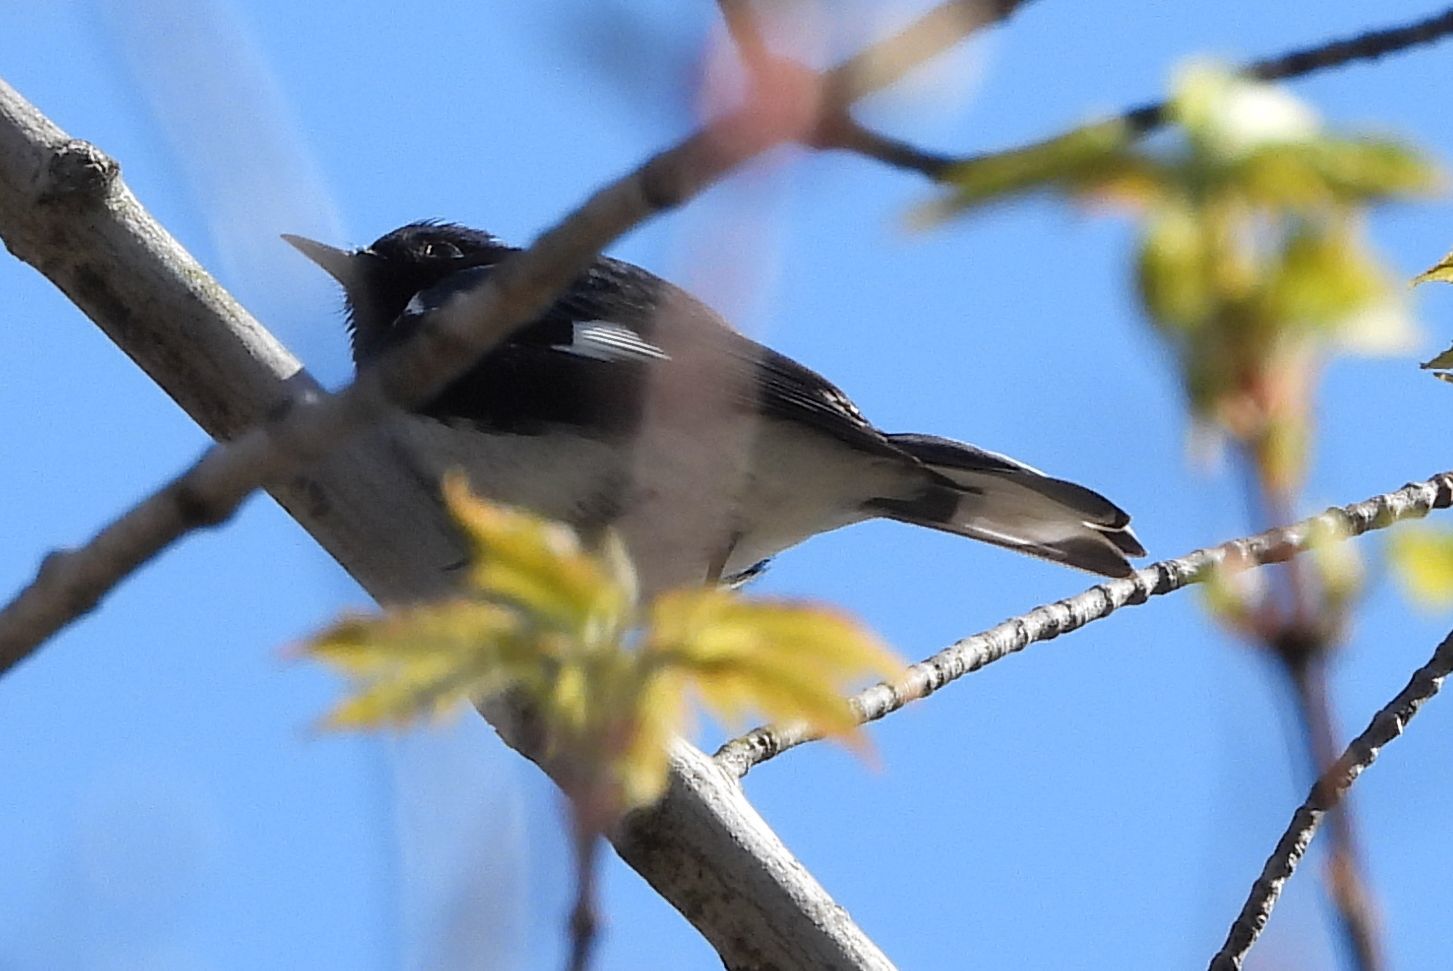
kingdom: Animalia
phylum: Chordata
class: Aves
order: Passeriformes
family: Parulidae
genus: Setophaga
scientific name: Setophaga caerulescens
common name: Black-throated blue warbler
